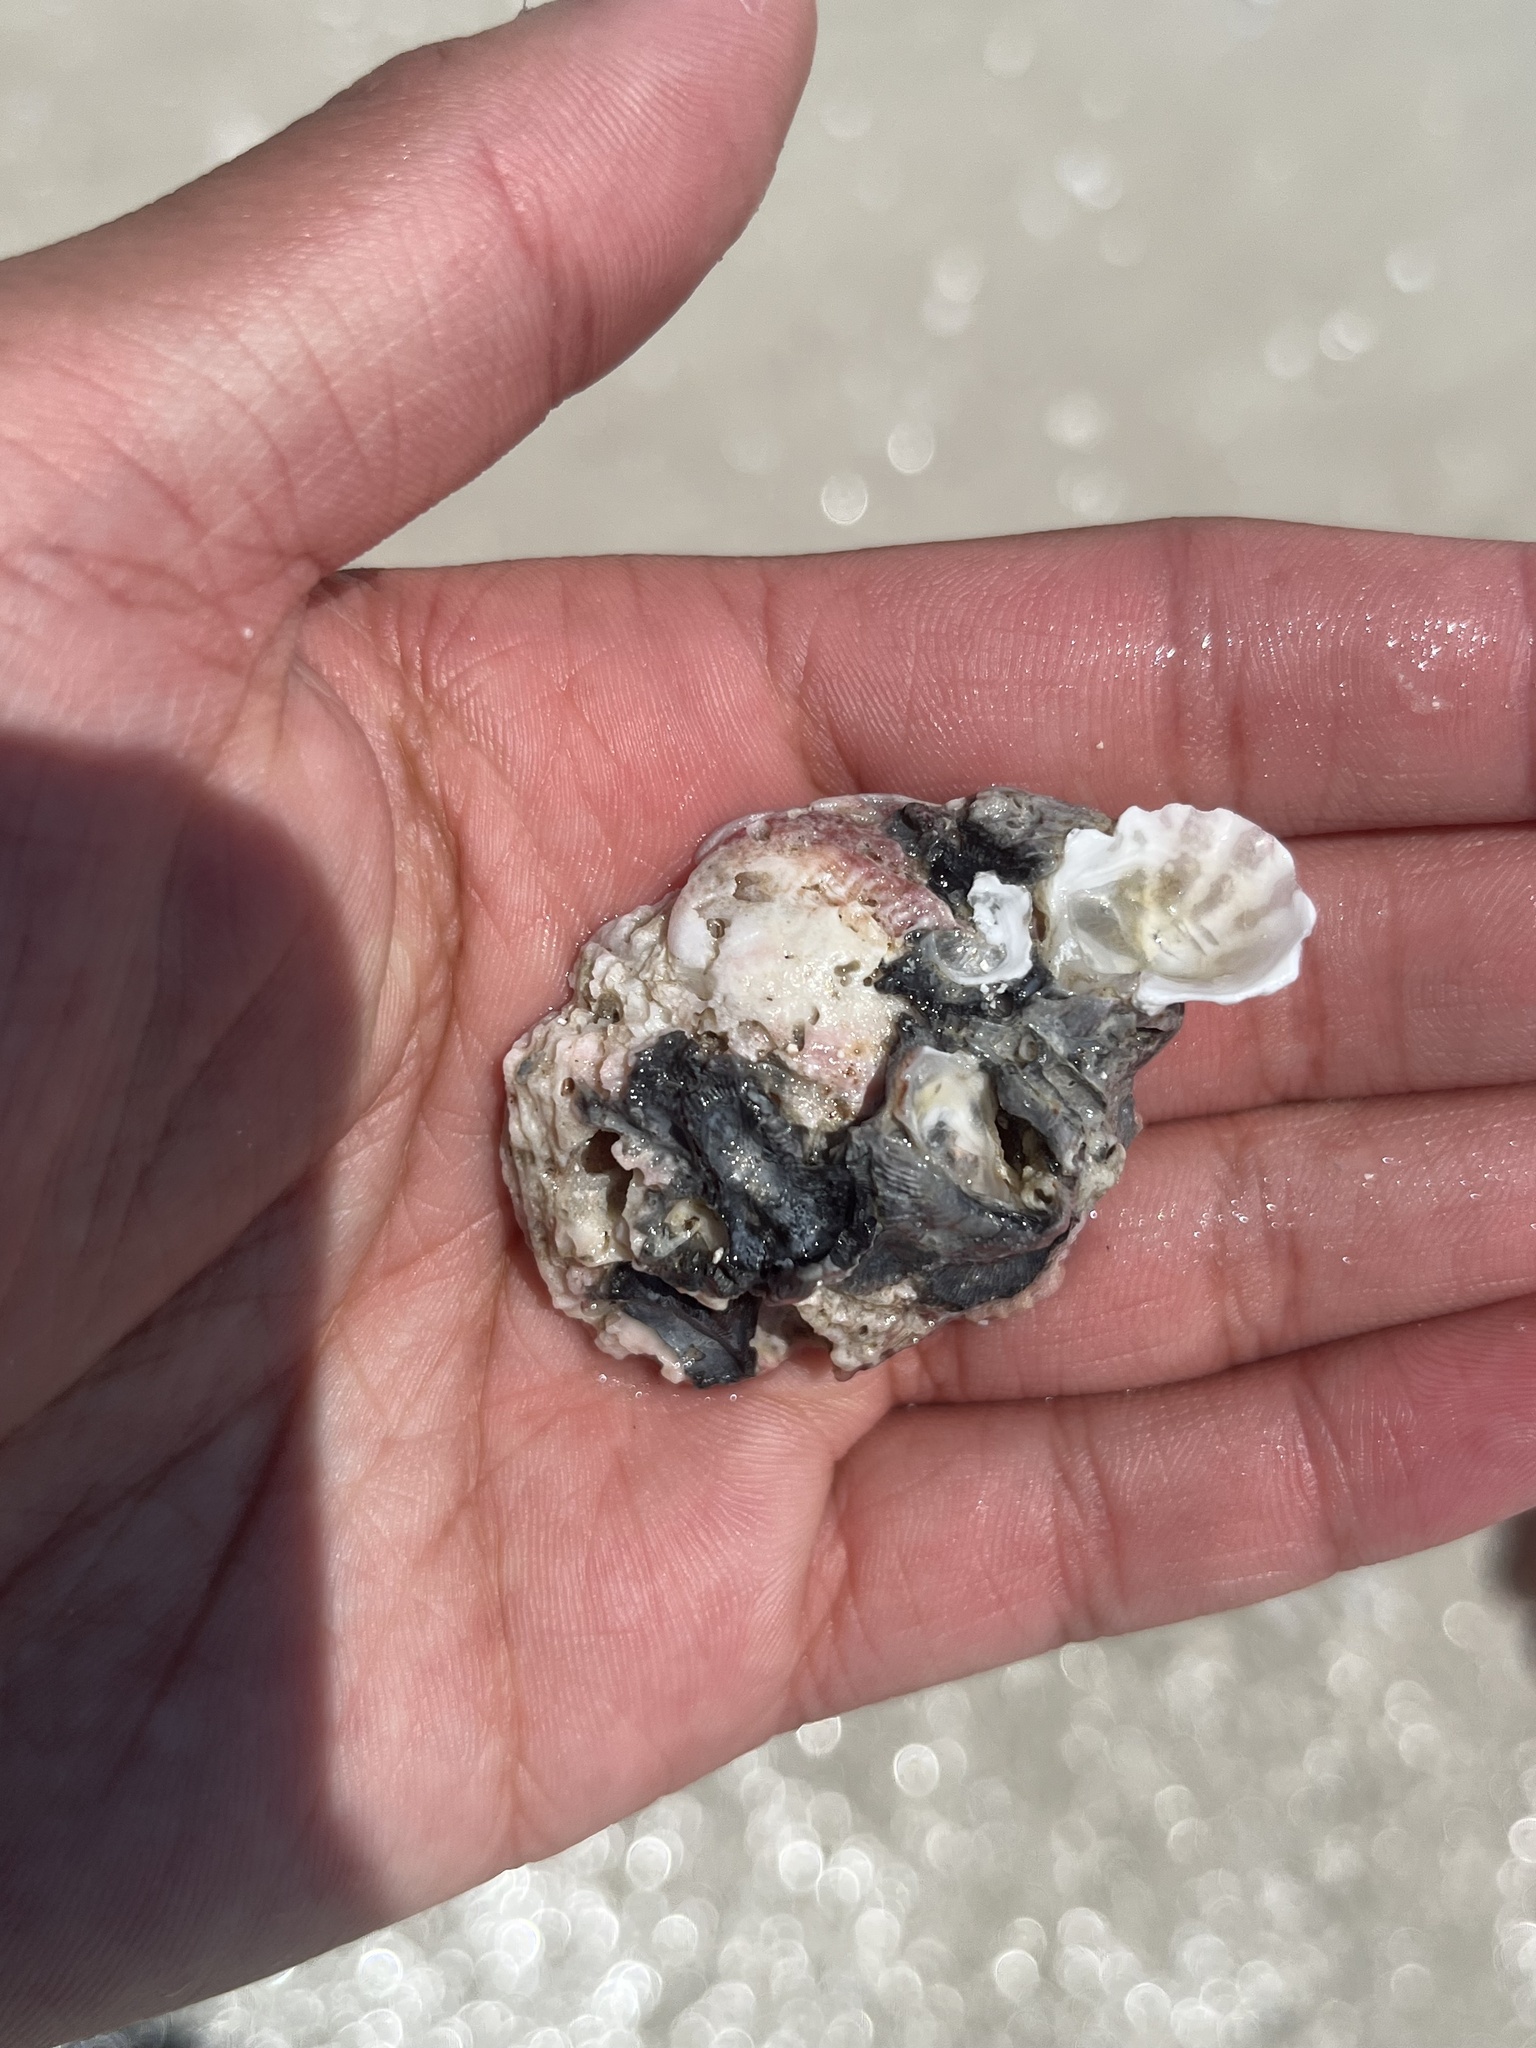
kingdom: Animalia
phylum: Mollusca
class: Bivalvia
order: Venerida
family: Chamidae
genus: Chama
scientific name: Chama congregata
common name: Corrugate jewelbox
